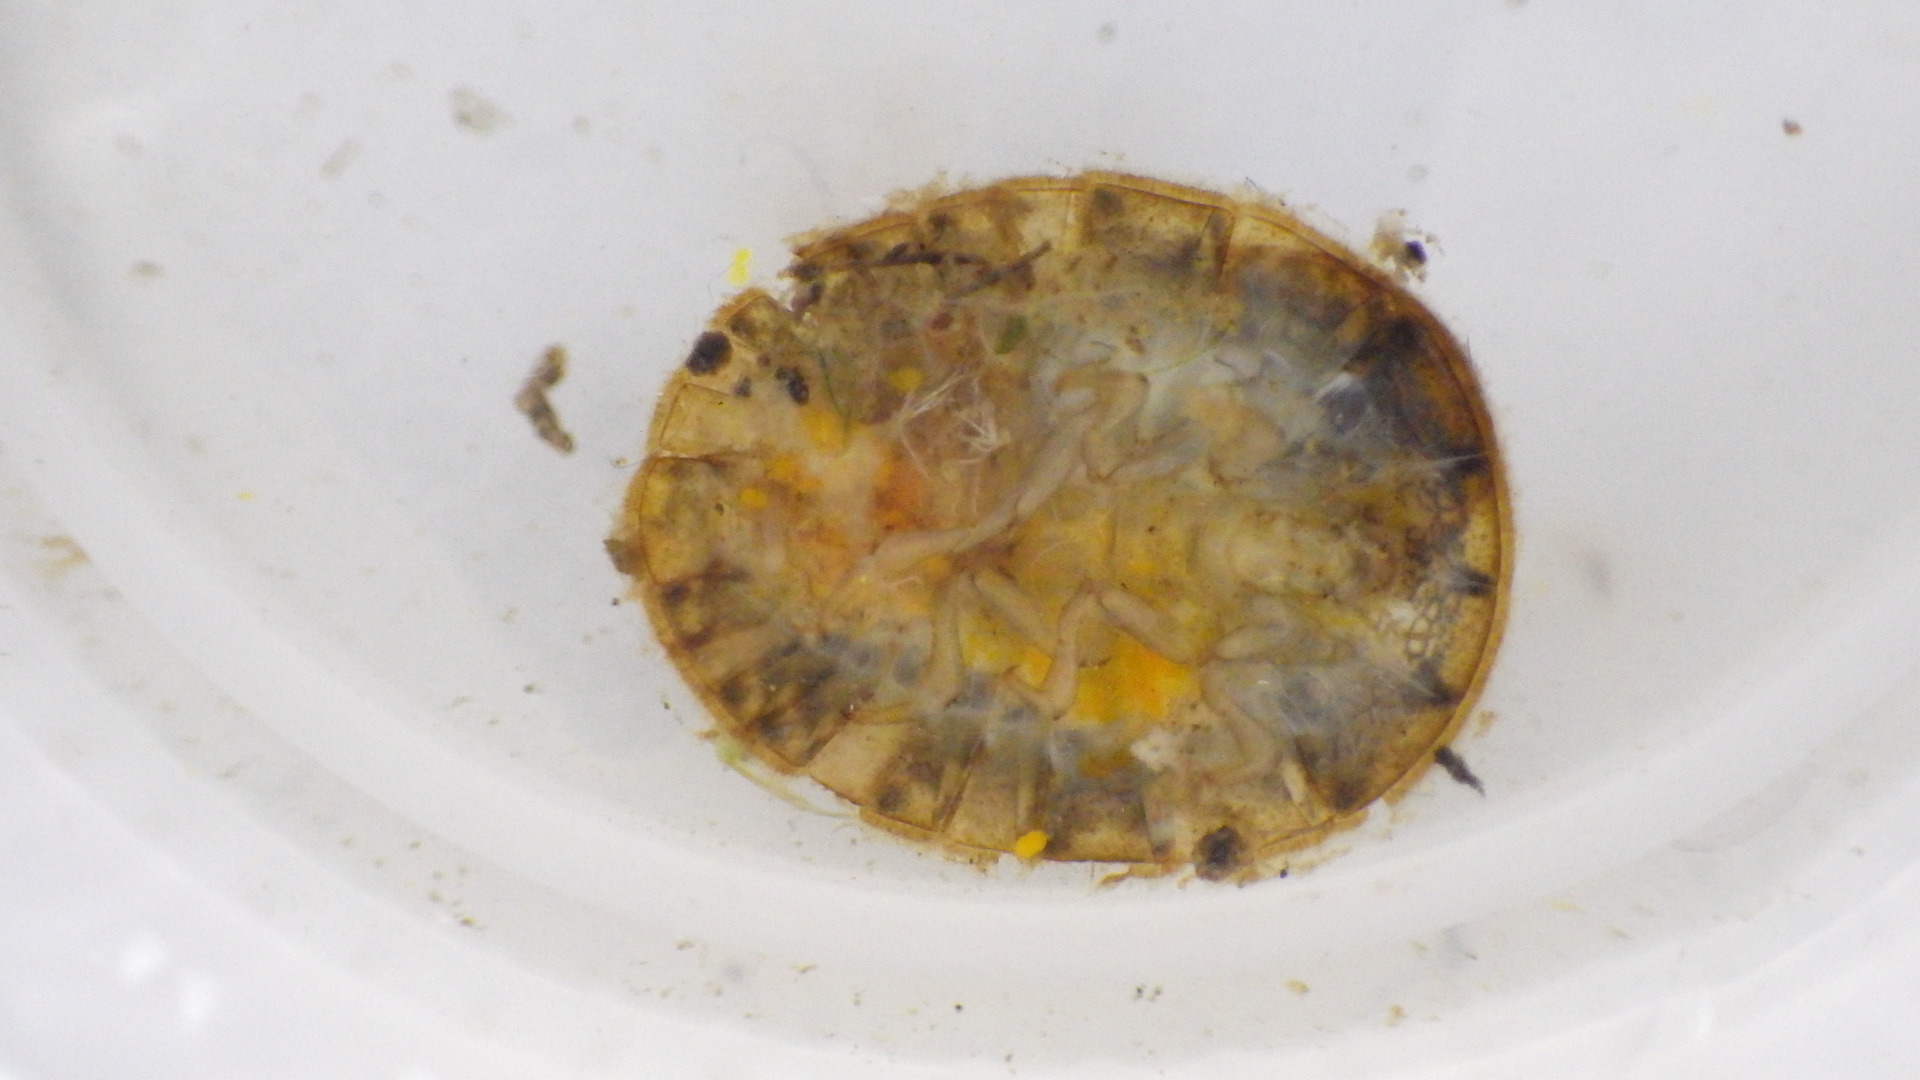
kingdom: Animalia
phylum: Arthropoda
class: Insecta
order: Coleoptera
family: Psephenidae
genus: Psephenus
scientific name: Psephenus herricki
